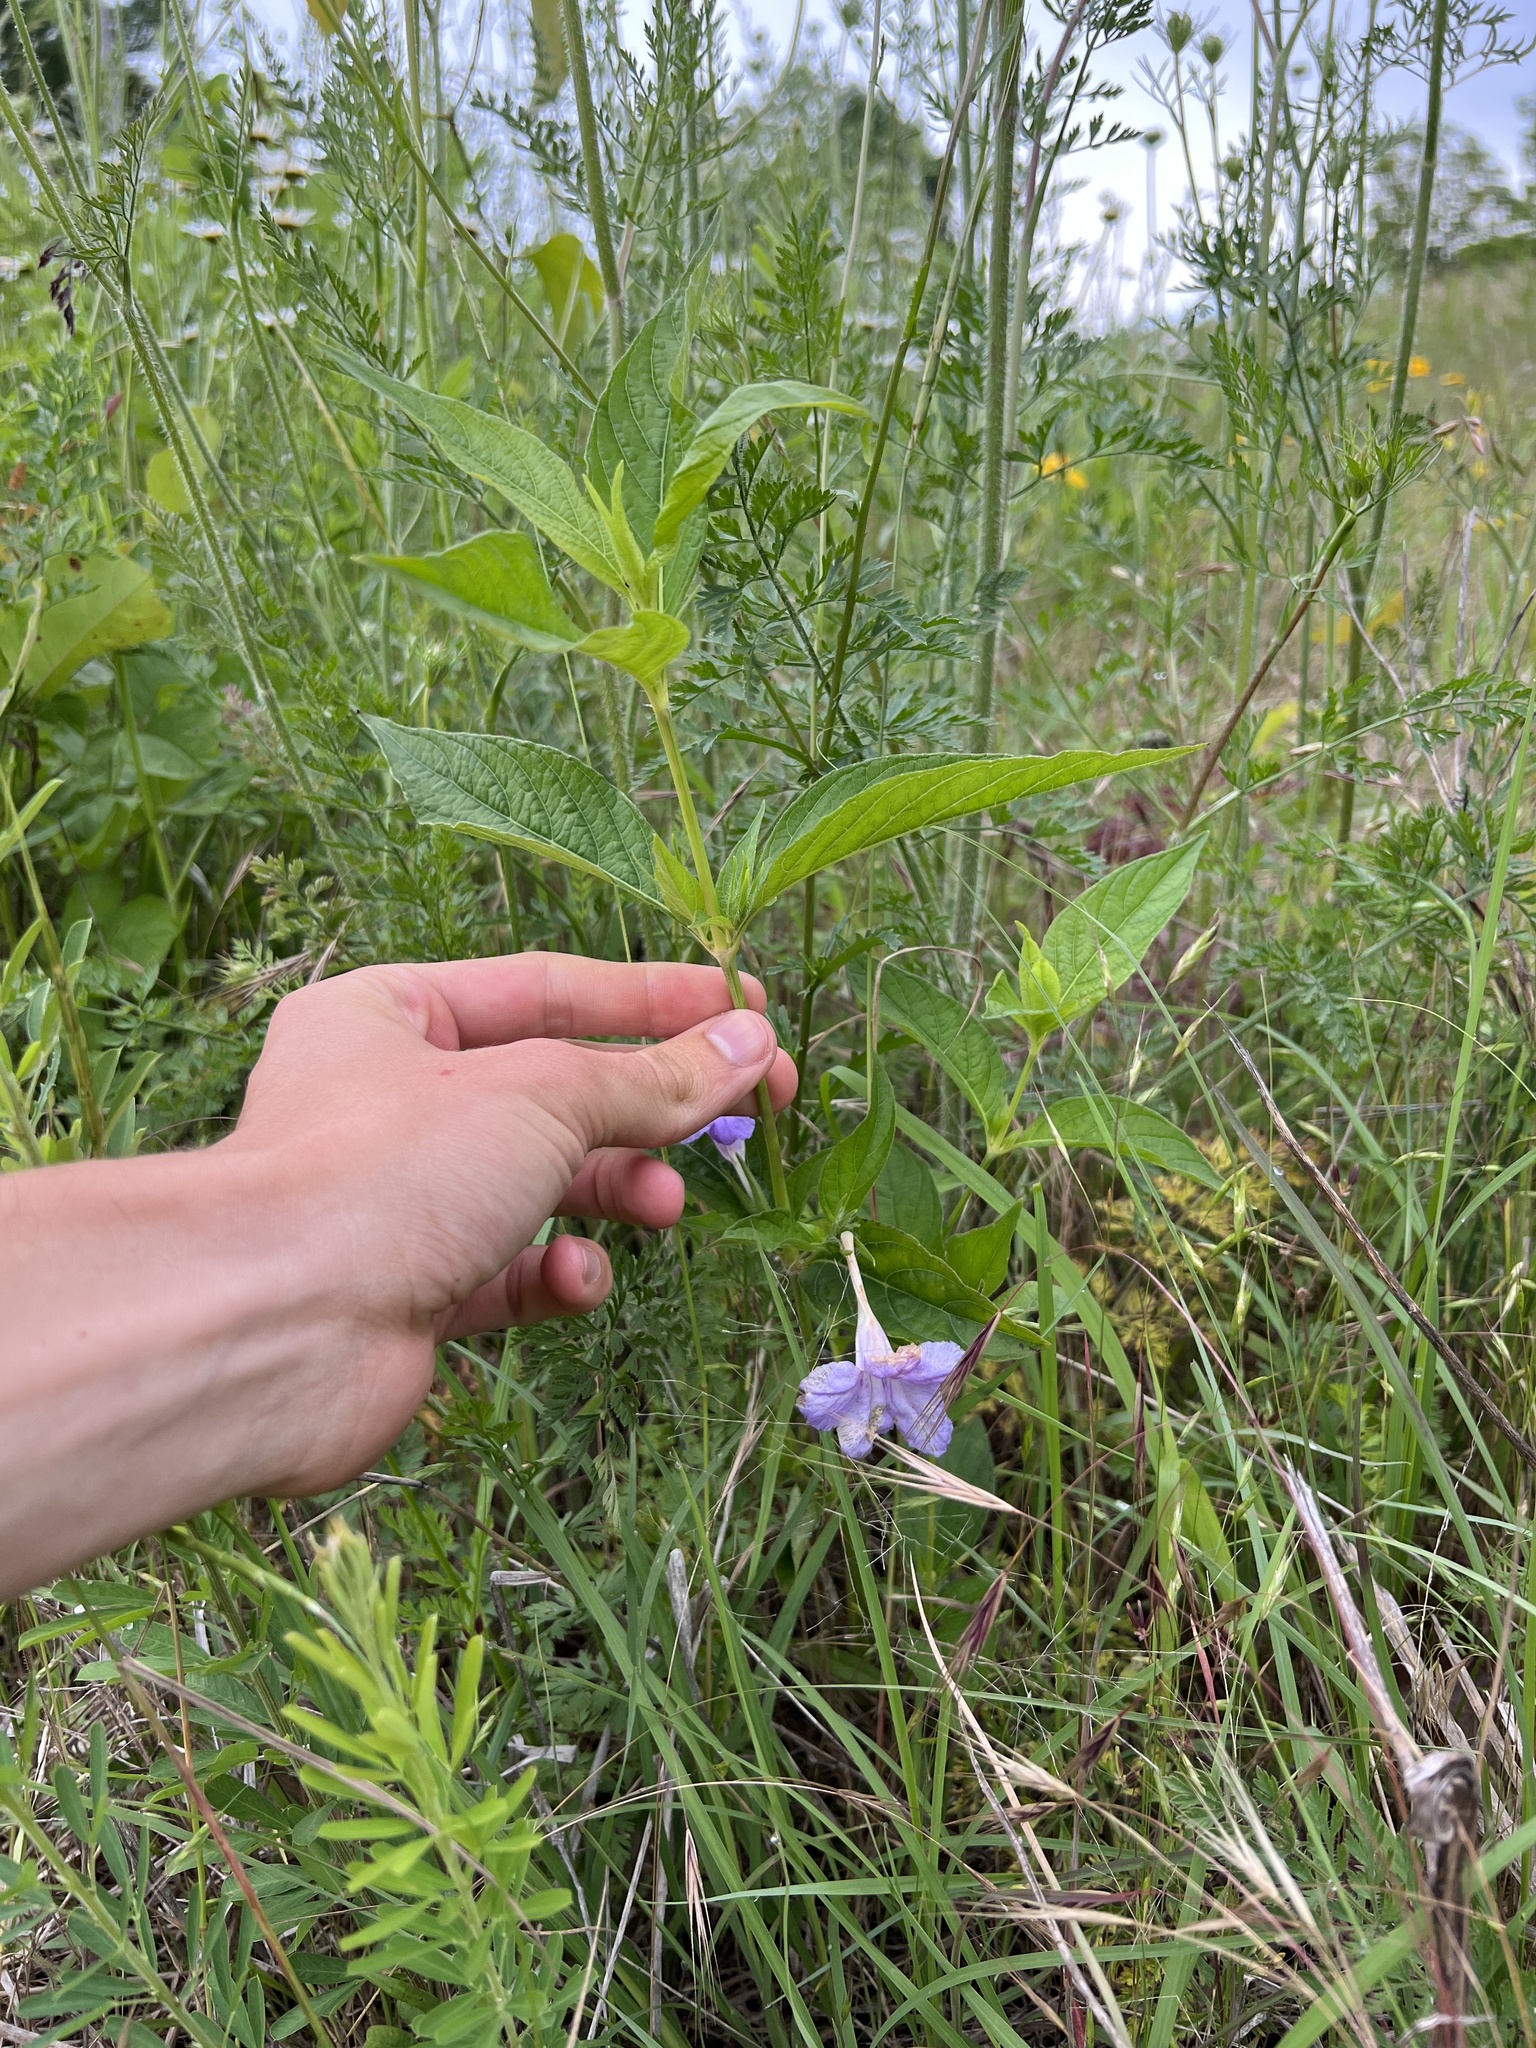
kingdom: Plantae
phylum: Tracheophyta
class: Magnoliopsida
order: Lamiales
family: Acanthaceae
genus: Ruellia
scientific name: Ruellia strepens
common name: Limestone wild petunia
